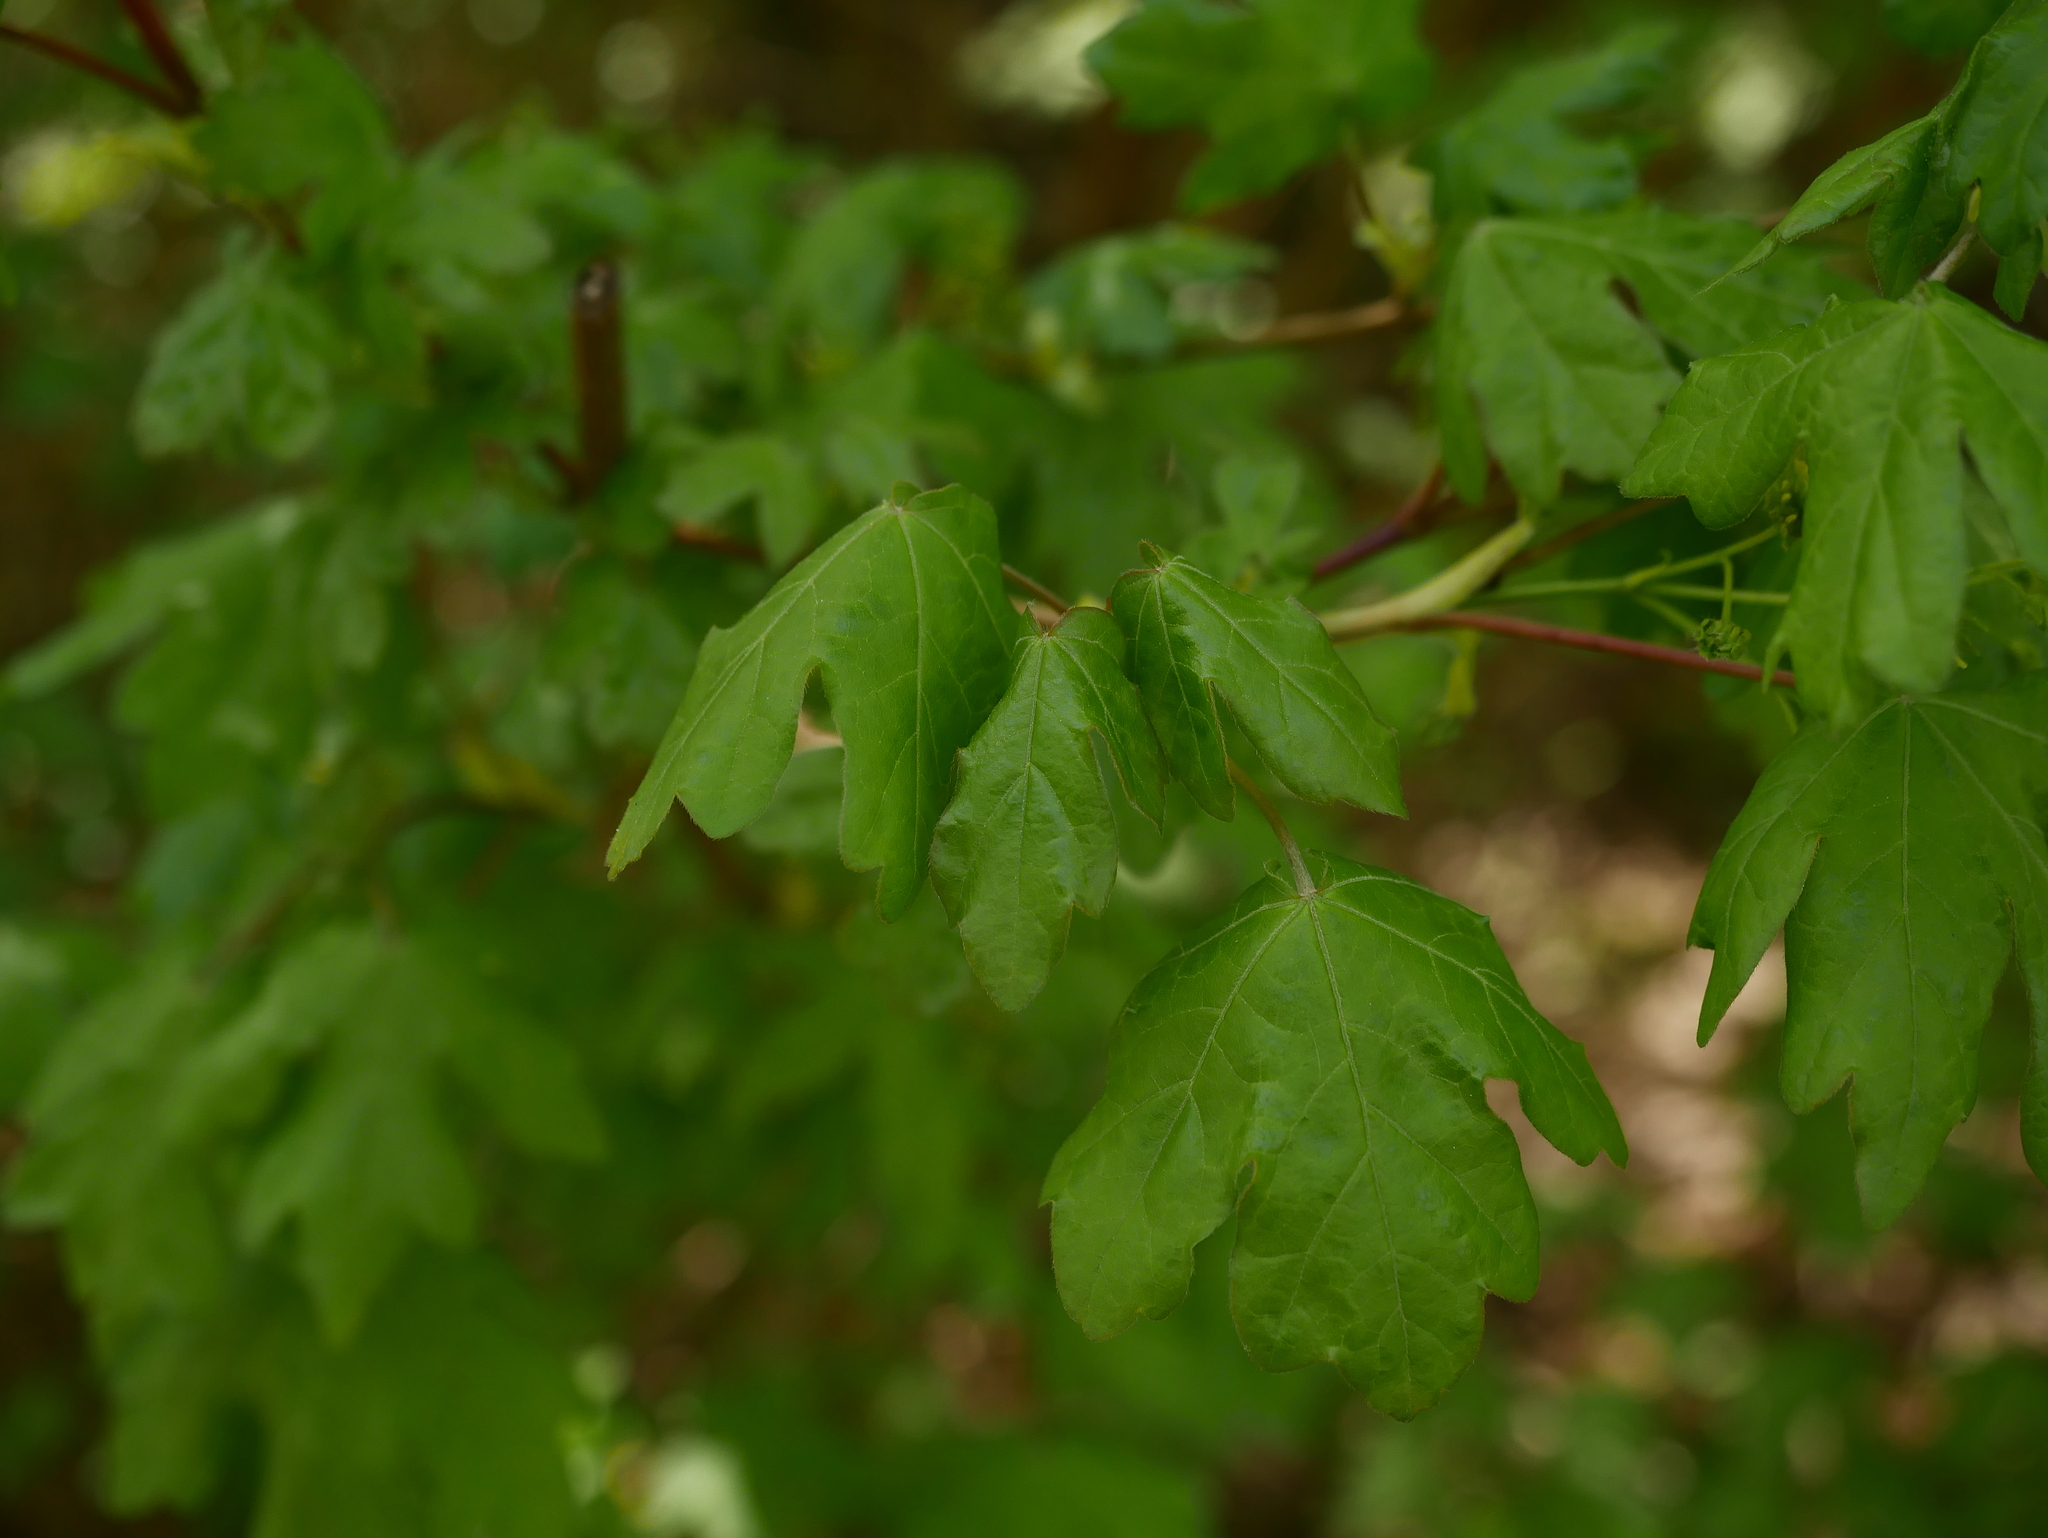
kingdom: Plantae
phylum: Tracheophyta
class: Magnoliopsida
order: Sapindales
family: Sapindaceae
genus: Acer
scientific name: Acer campestre
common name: Field maple
